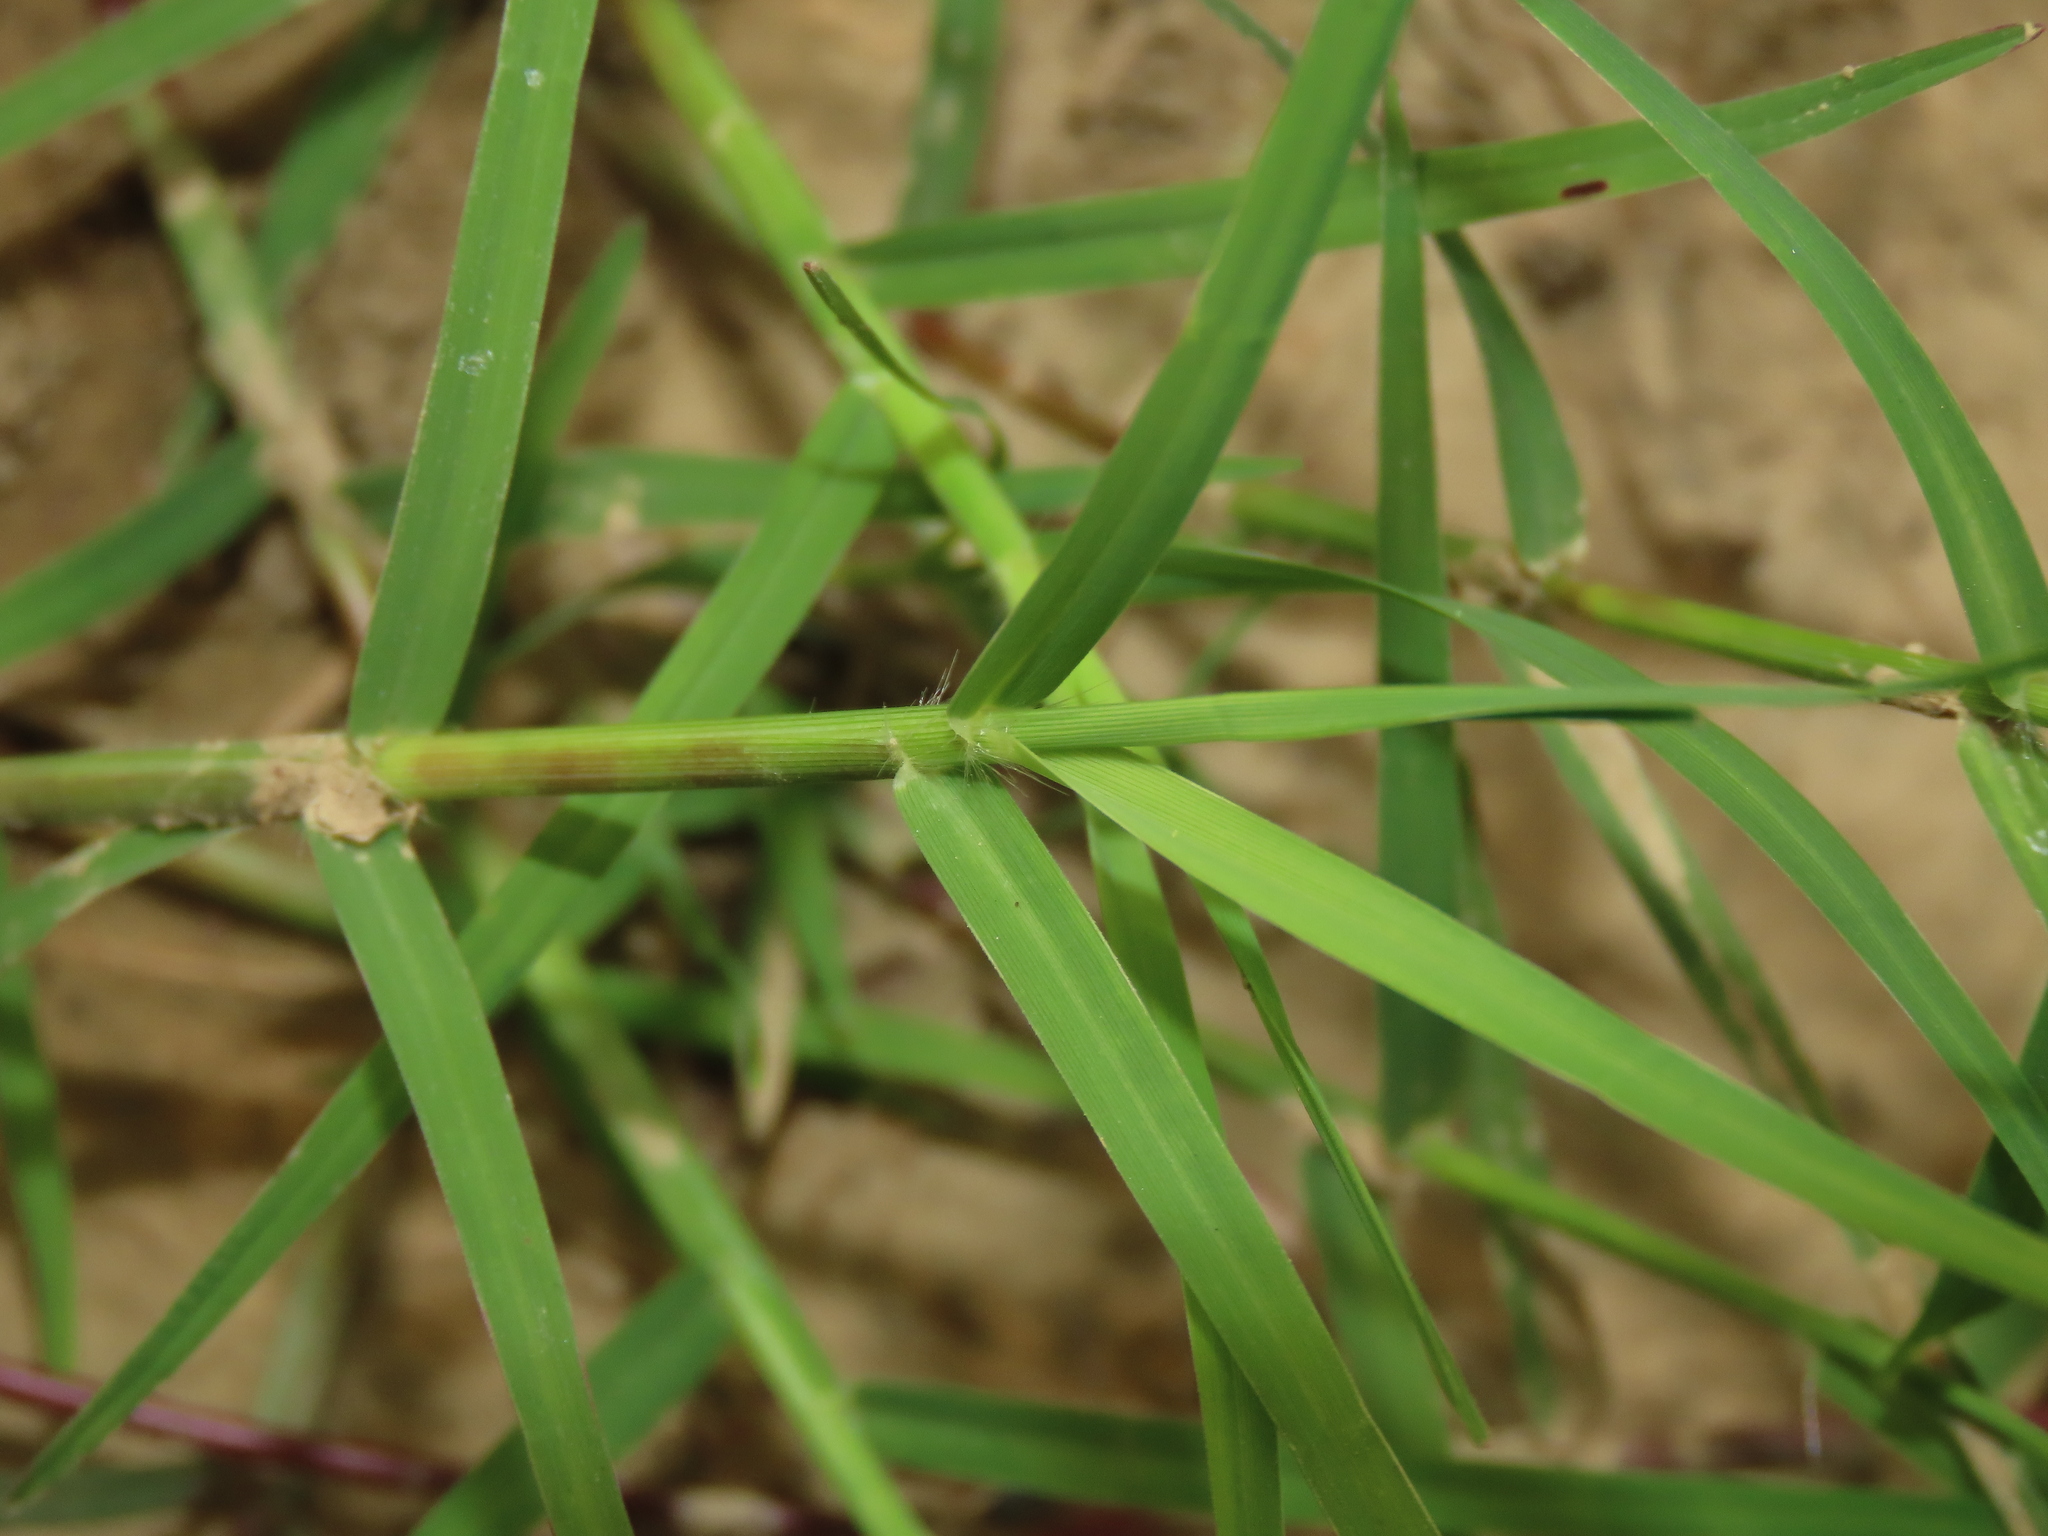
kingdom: Plantae
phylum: Tracheophyta
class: Liliopsida
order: Poales
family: Poaceae
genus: Cynodon
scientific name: Cynodon dactylon
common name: Bermuda grass
